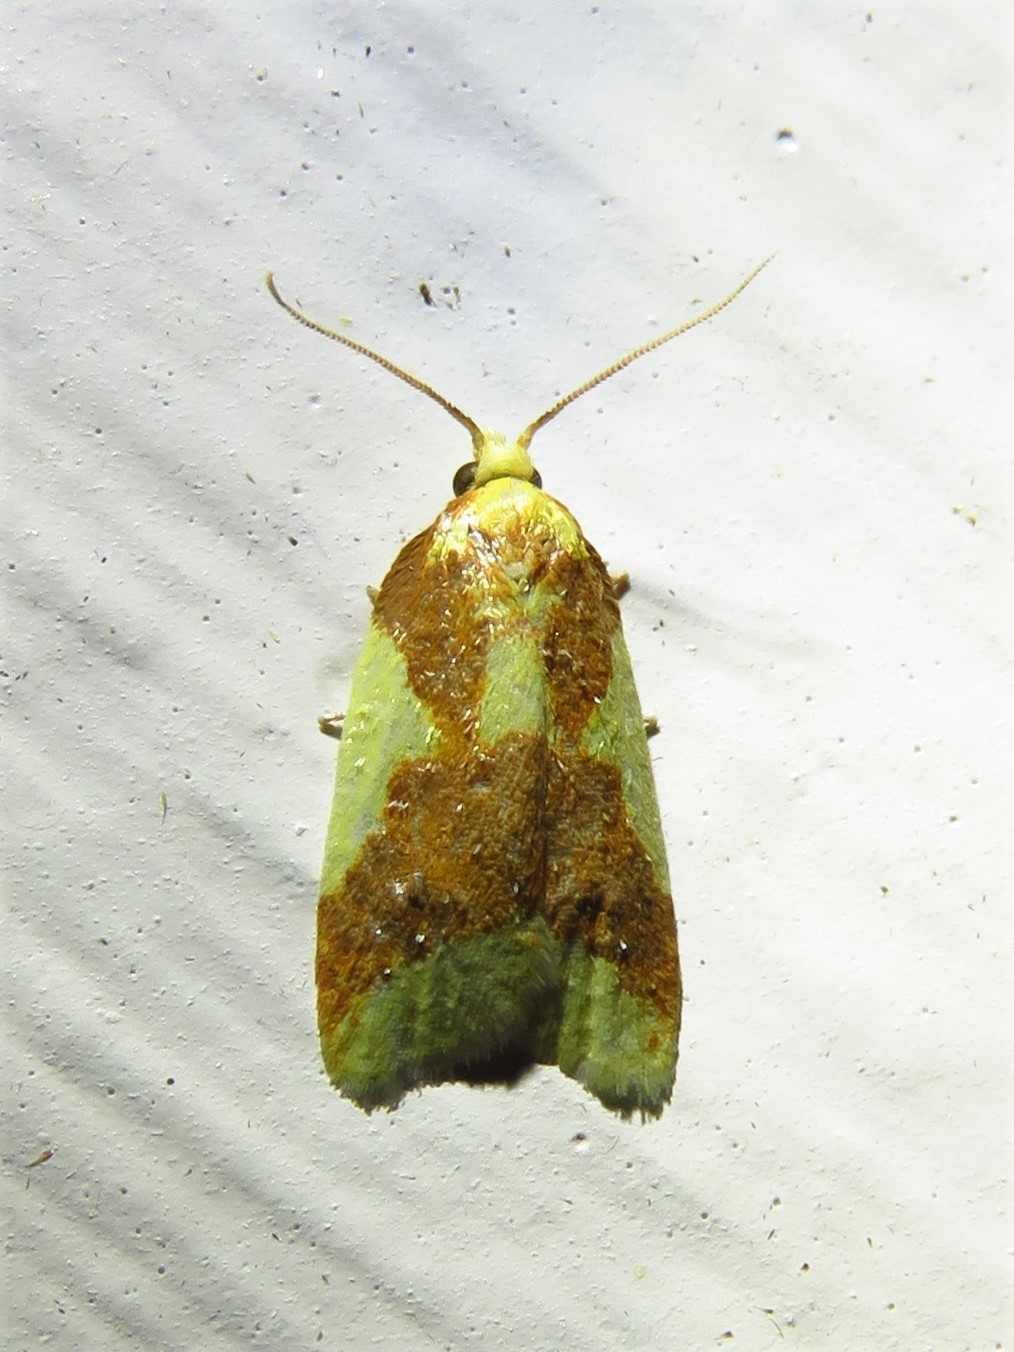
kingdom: Animalia
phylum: Arthropoda
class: Insecta
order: Lepidoptera
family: Tortricidae
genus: Sparganothis
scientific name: Sparganothis pulcherrimana
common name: Beautiful sparganothis
